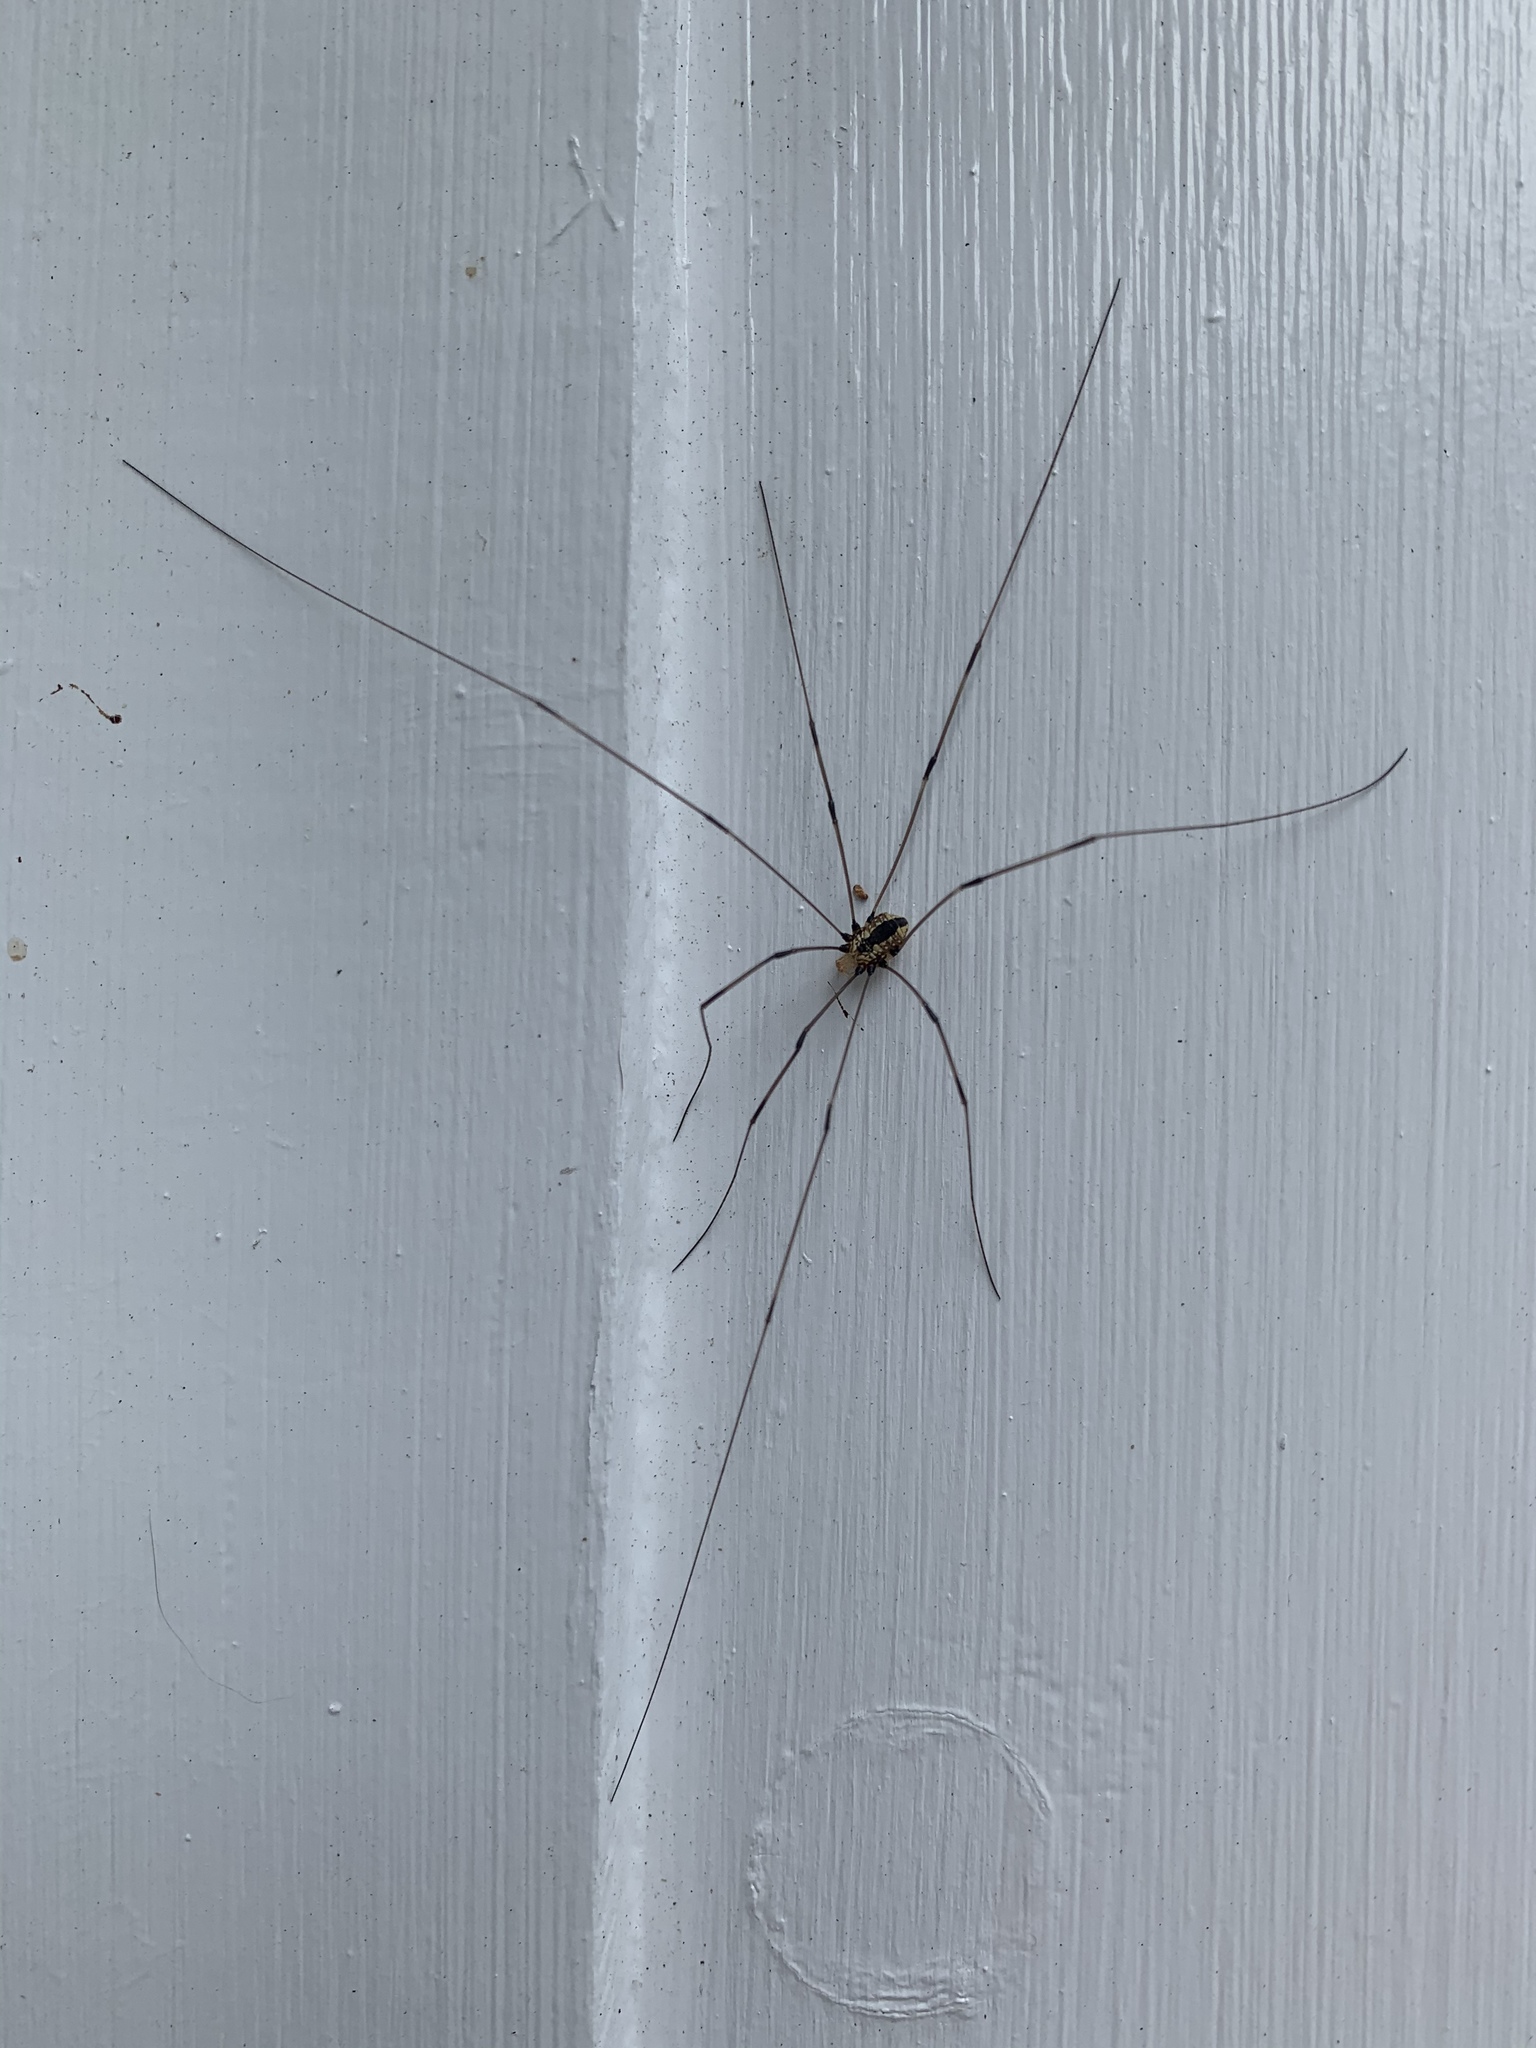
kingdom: Animalia
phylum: Arthropoda
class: Arachnida
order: Opiliones
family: Sclerosomatidae
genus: Leiobunum
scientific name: Leiobunum vittatum
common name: Eastern harvestman
